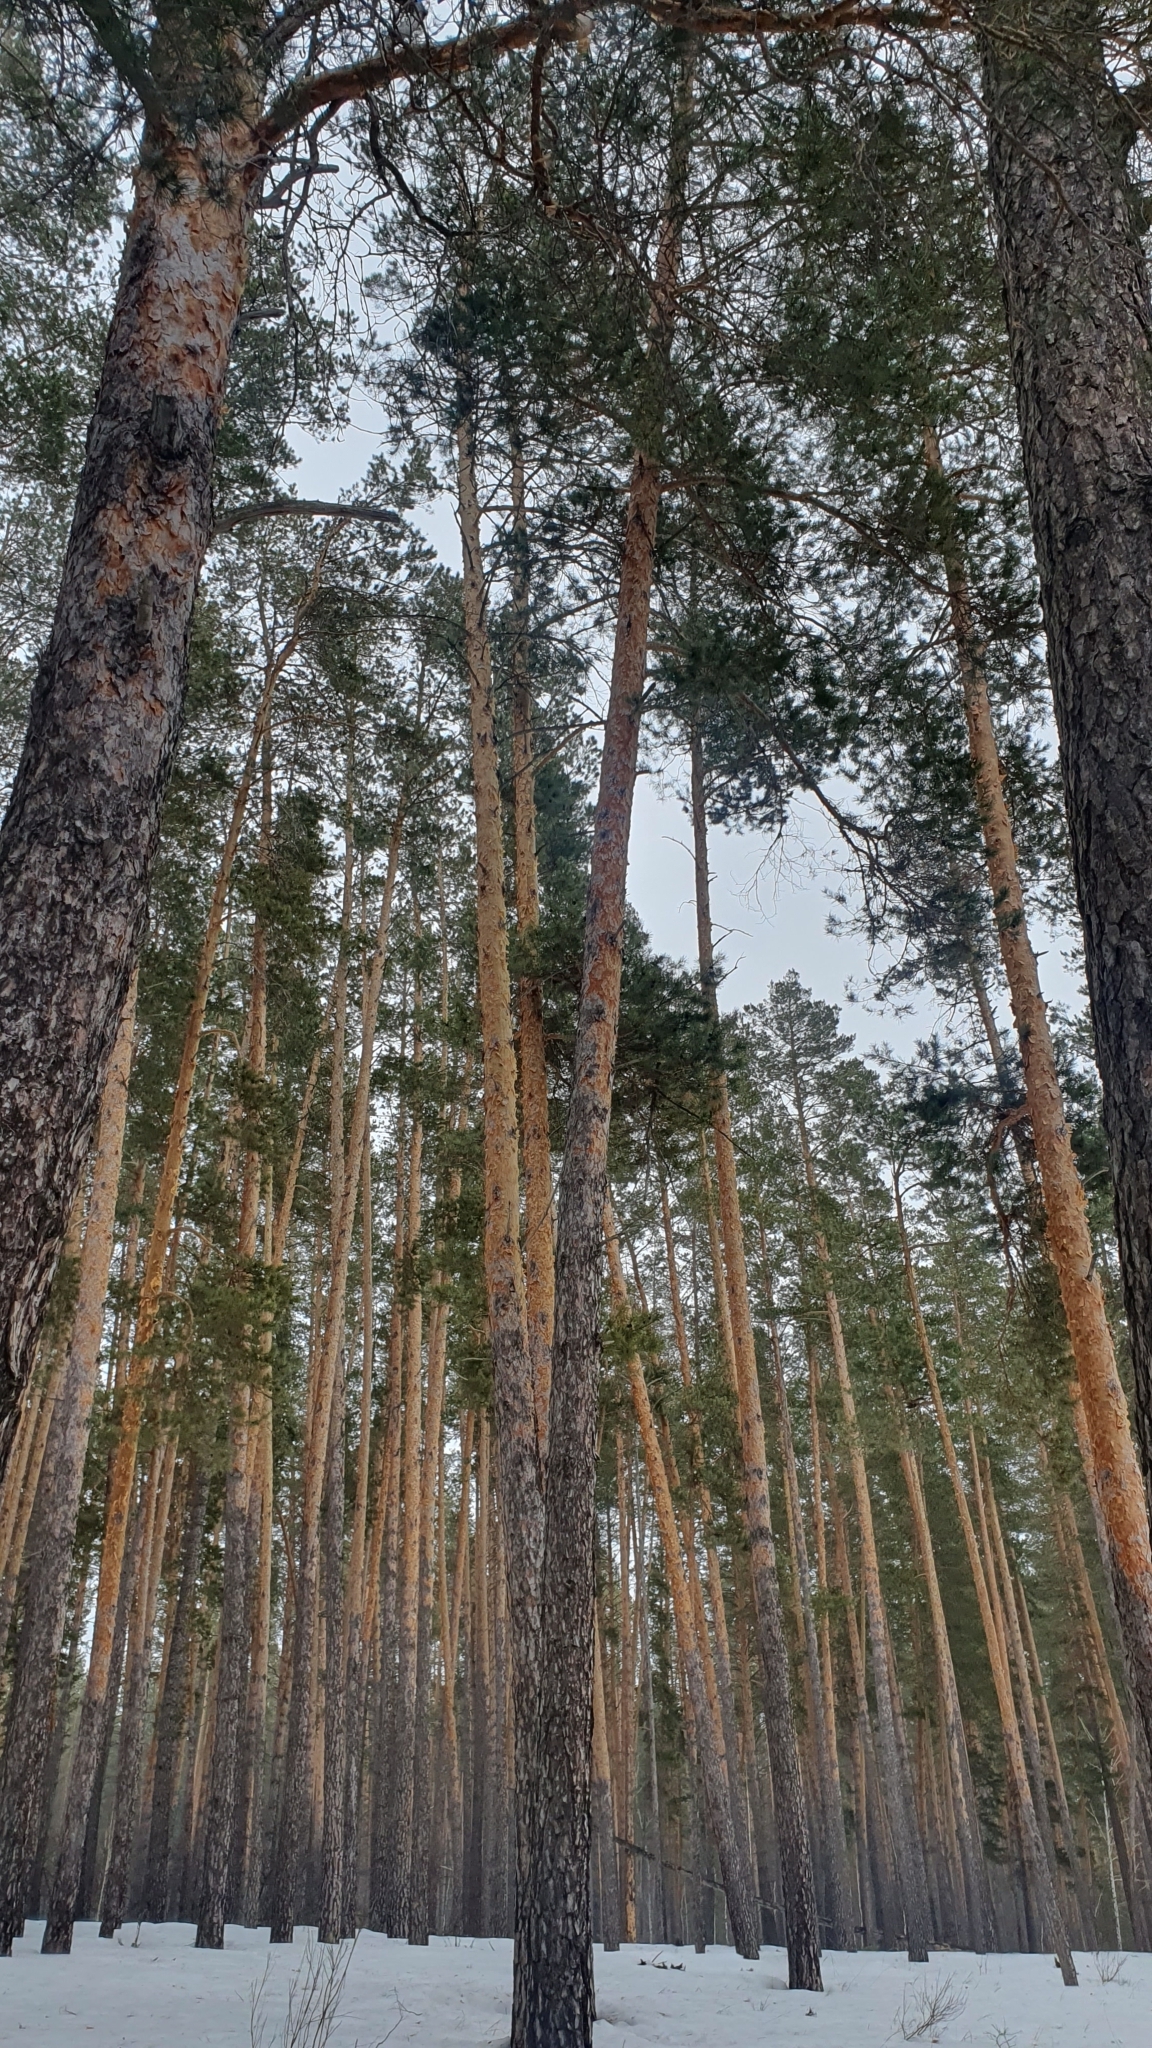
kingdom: Plantae
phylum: Tracheophyta
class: Pinopsida
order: Pinales
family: Pinaceae
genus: Pinus
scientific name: Pinus sylvestris
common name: Scots pine
